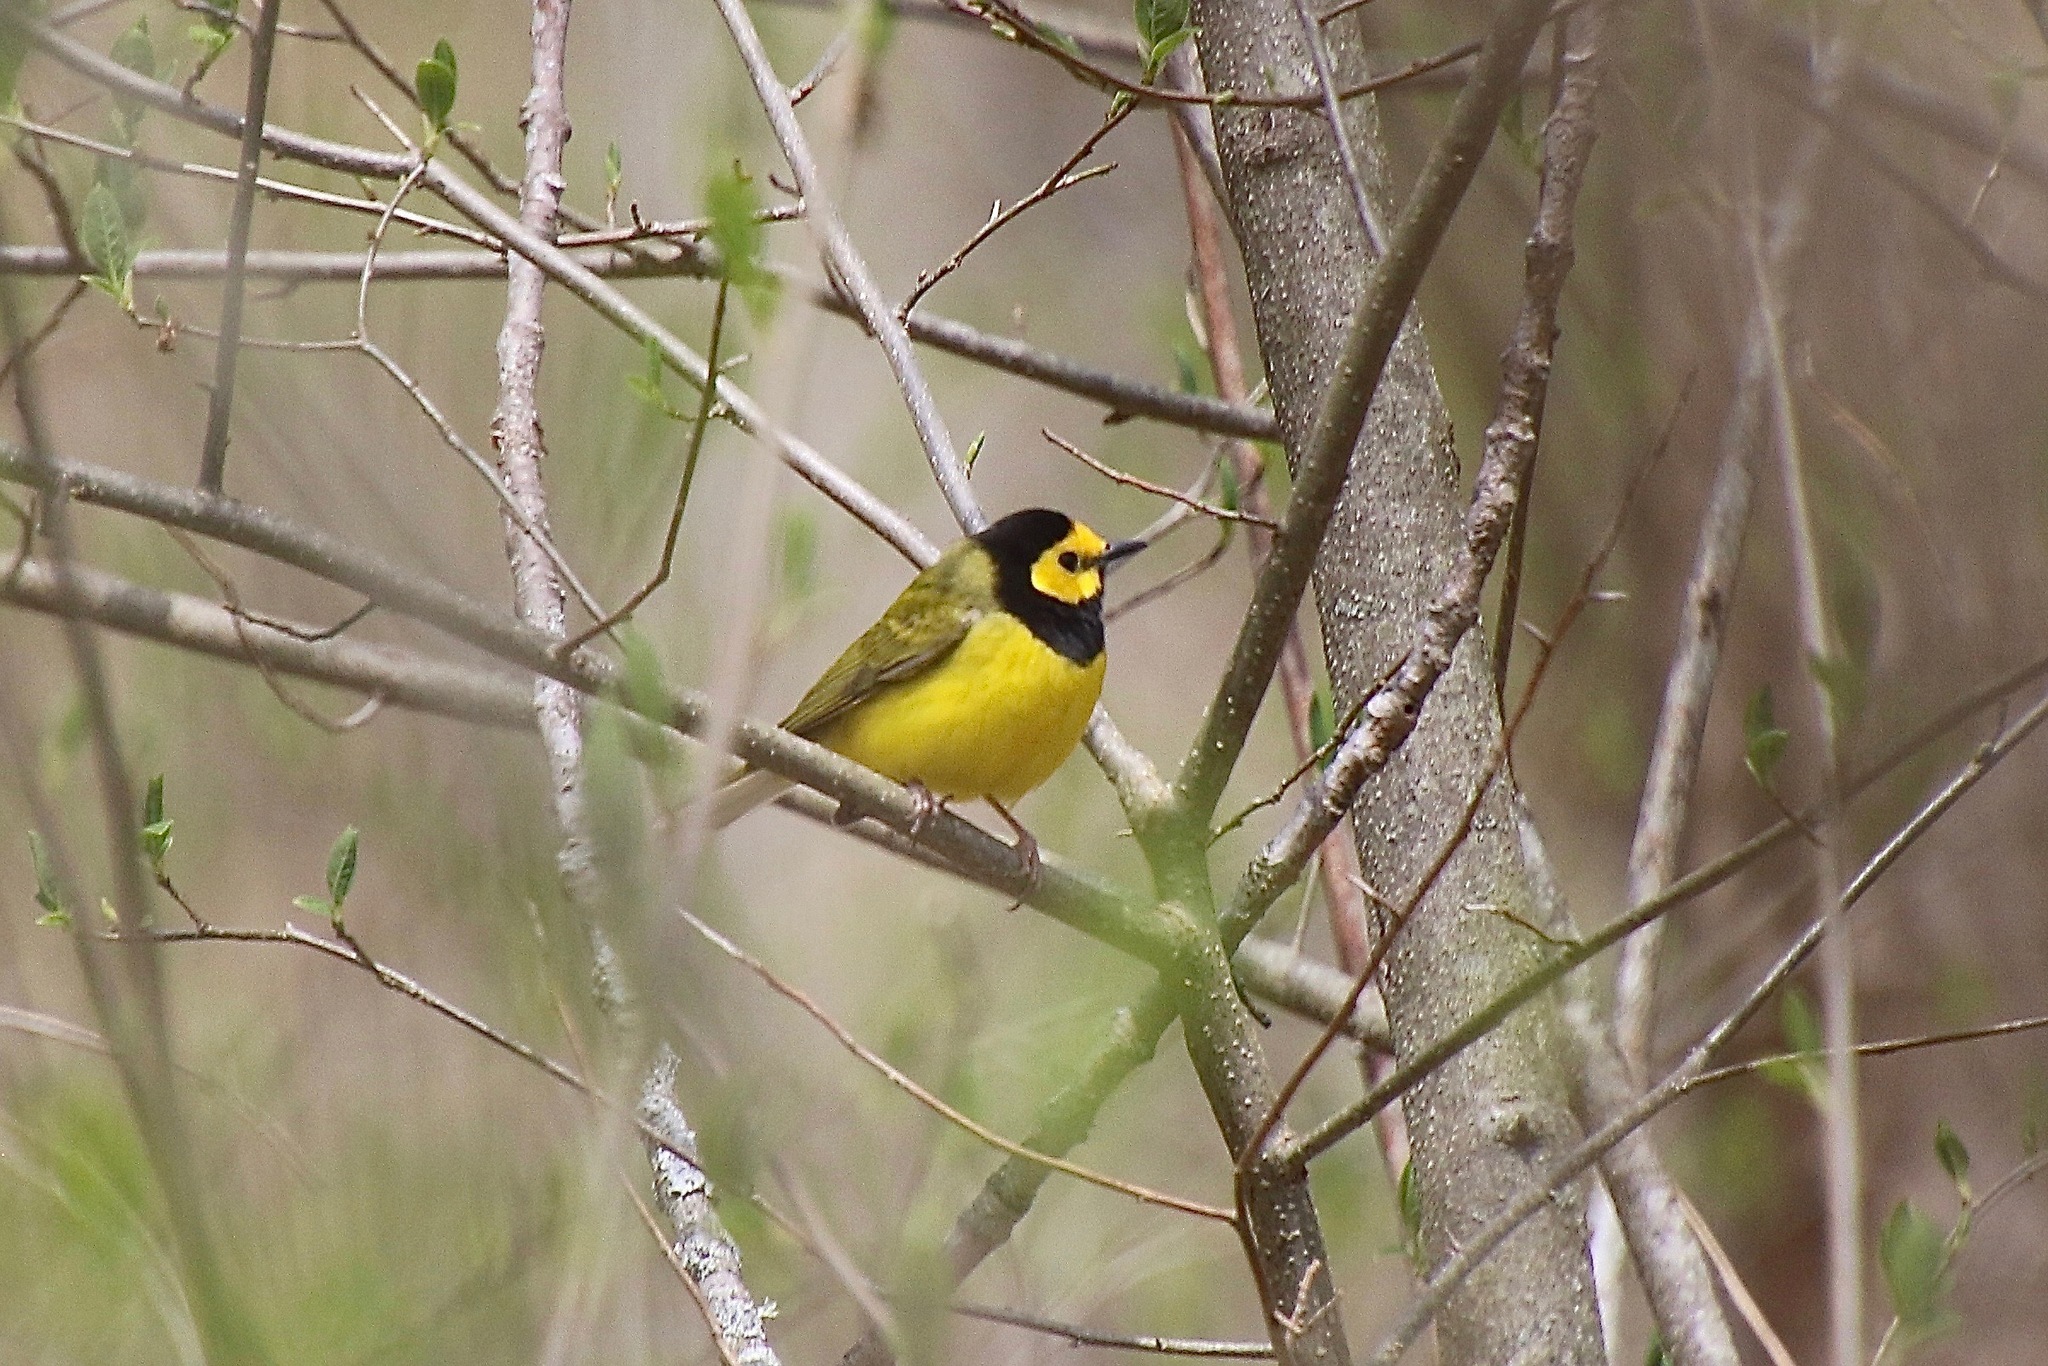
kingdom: Animalia
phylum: Chordata
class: Aves
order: Passeriformes
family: Parulidae
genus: Setophaga
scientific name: Setophaga citrina
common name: Hooded warbler
